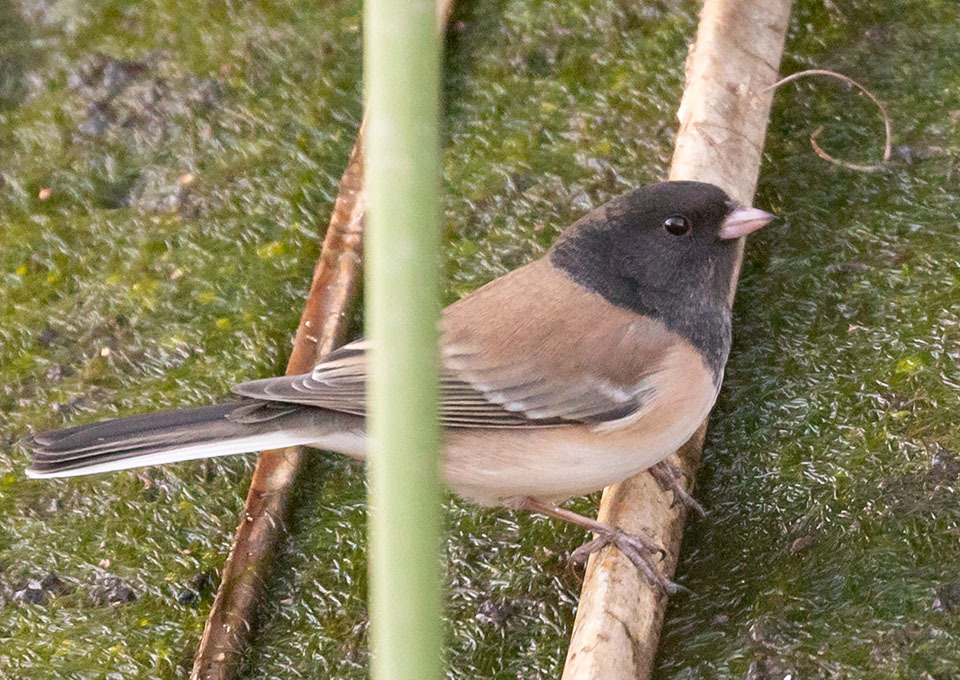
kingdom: Animalia
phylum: Chordata
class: Aves
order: Passeriformes
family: Passerellidae
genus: Junco
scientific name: Junco hyemalis
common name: Dark-eyed junco
